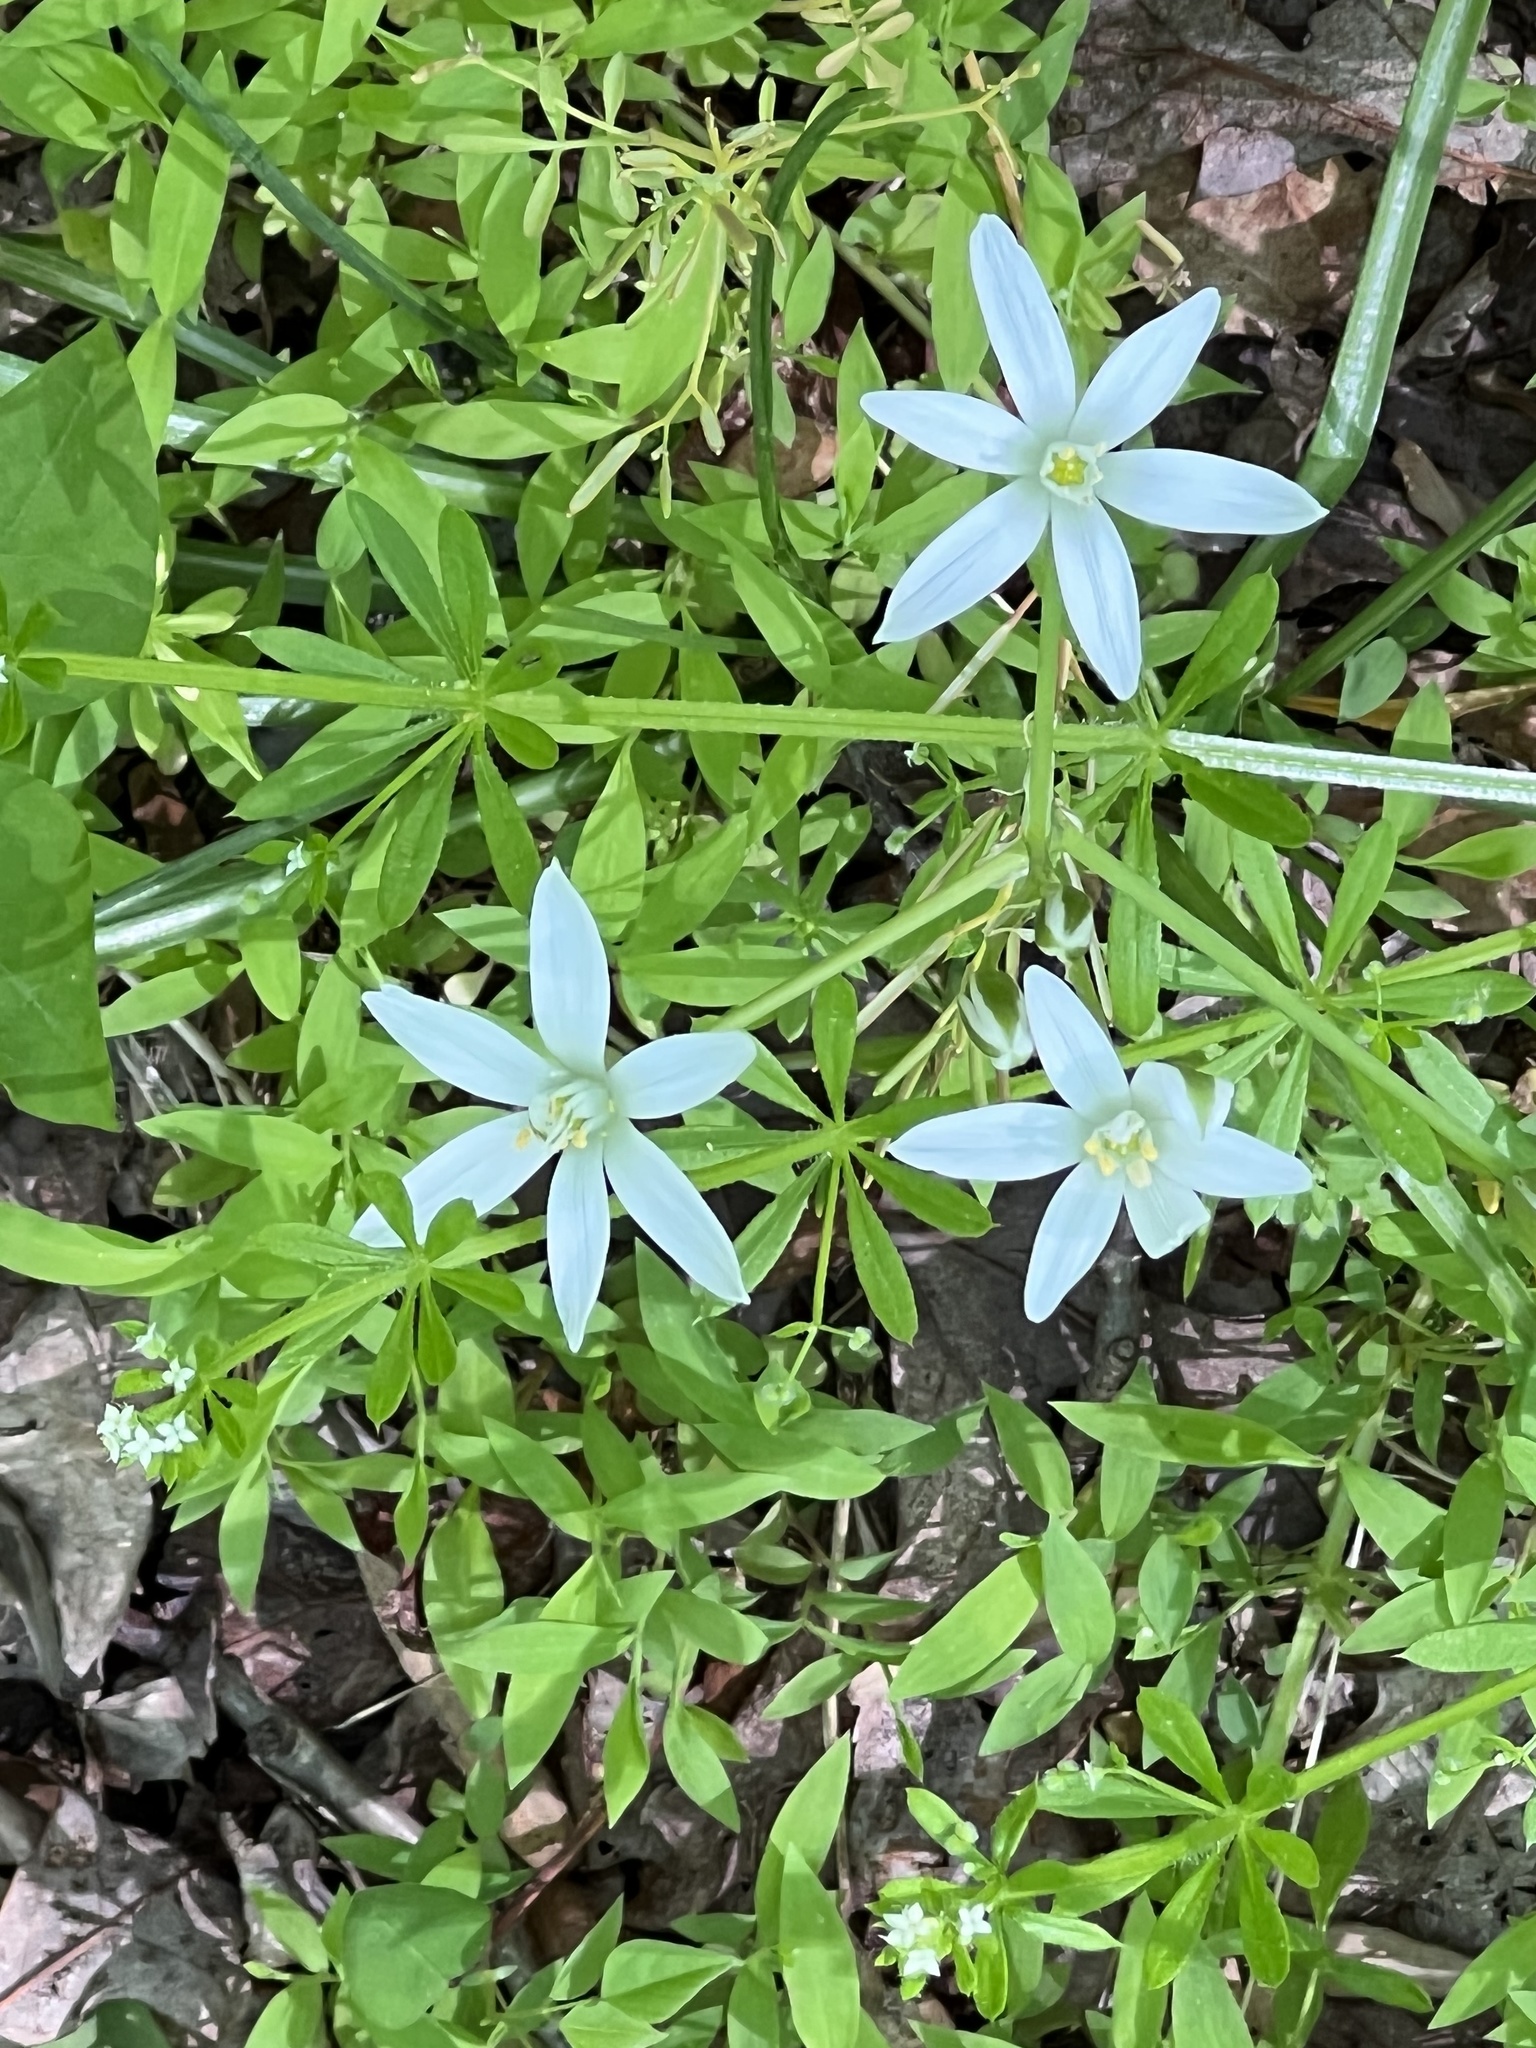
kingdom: Plantae
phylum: Tracheophyta
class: Liliopsida
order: Asparagales
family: Asparagaceae
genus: Ornithogalum
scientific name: Ornithogalum umbellatum
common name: Garden star-of-bethlehem
